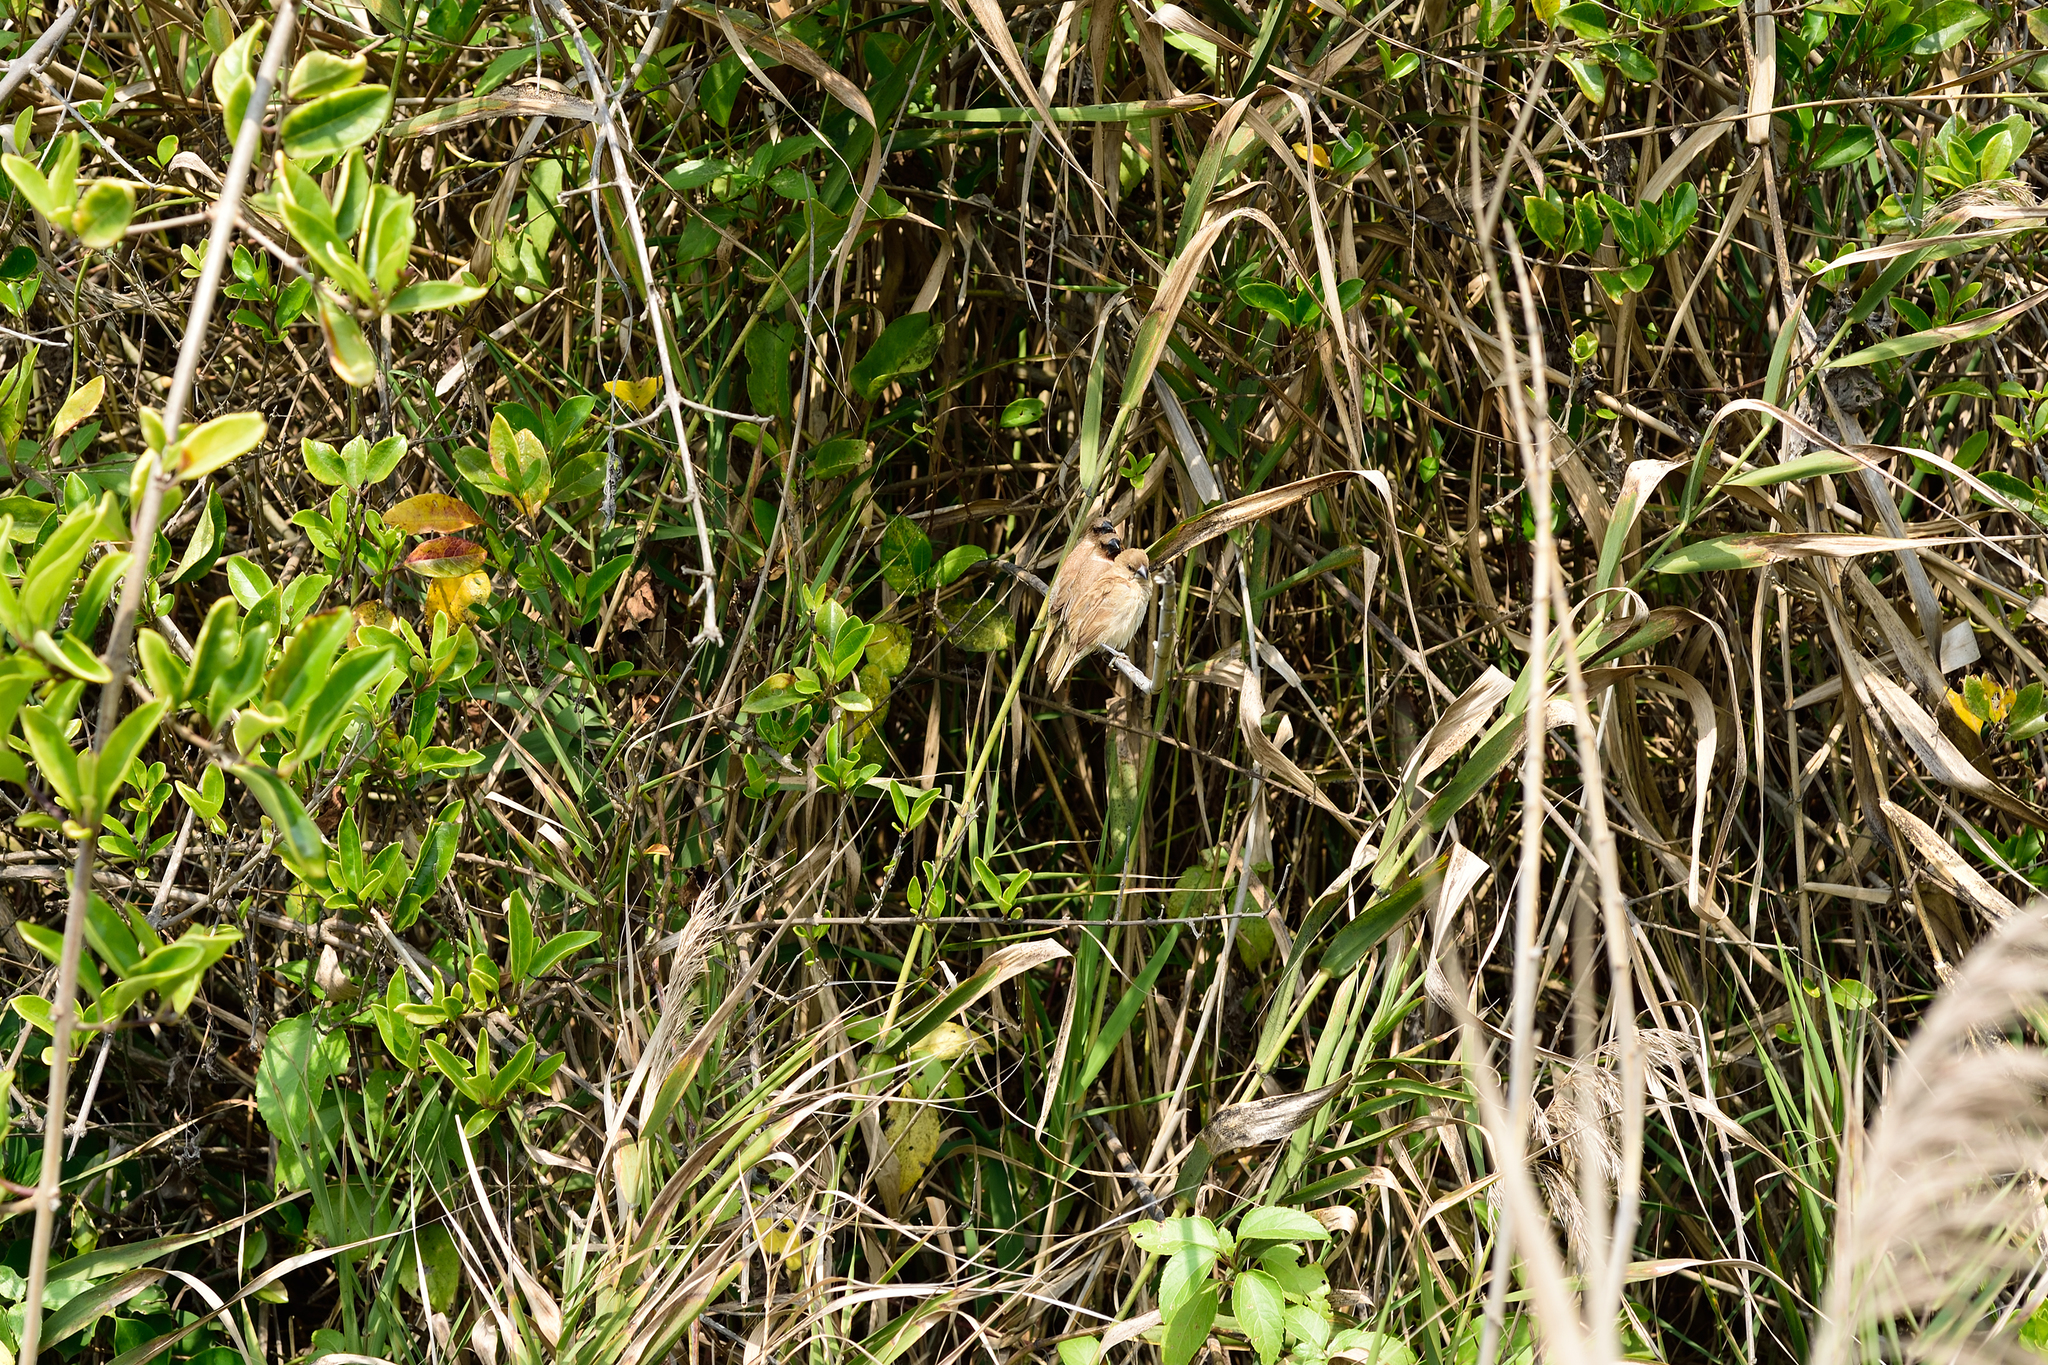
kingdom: Animalia
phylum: Chordata
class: Aves
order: Passeriformes
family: Estrildidae
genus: Lonchura
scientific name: Lonchura punctulata
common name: Scaly-breasted munia
